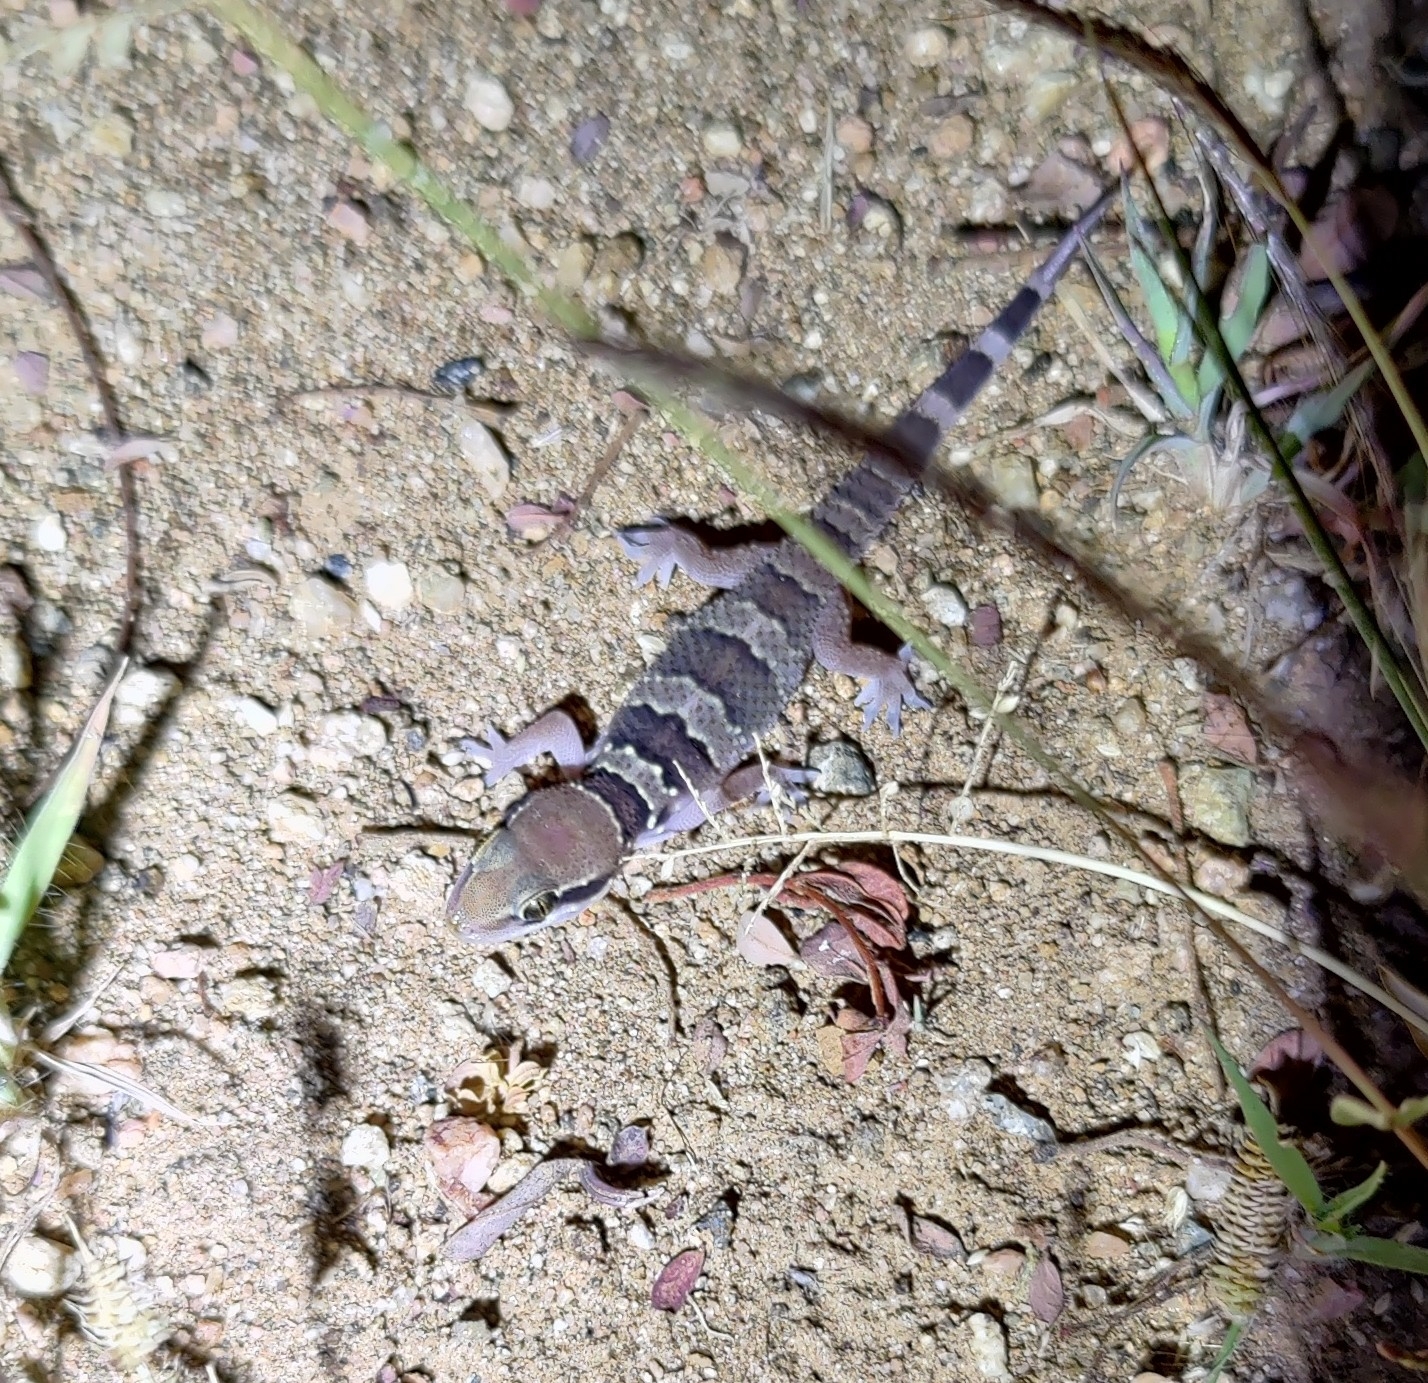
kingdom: Animalia
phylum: Chordata
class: Squamata
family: Gekkonidae
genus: Hemidactylus
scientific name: Hemidactylus whitakeri
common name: Whitaker’s termite hill gecko
